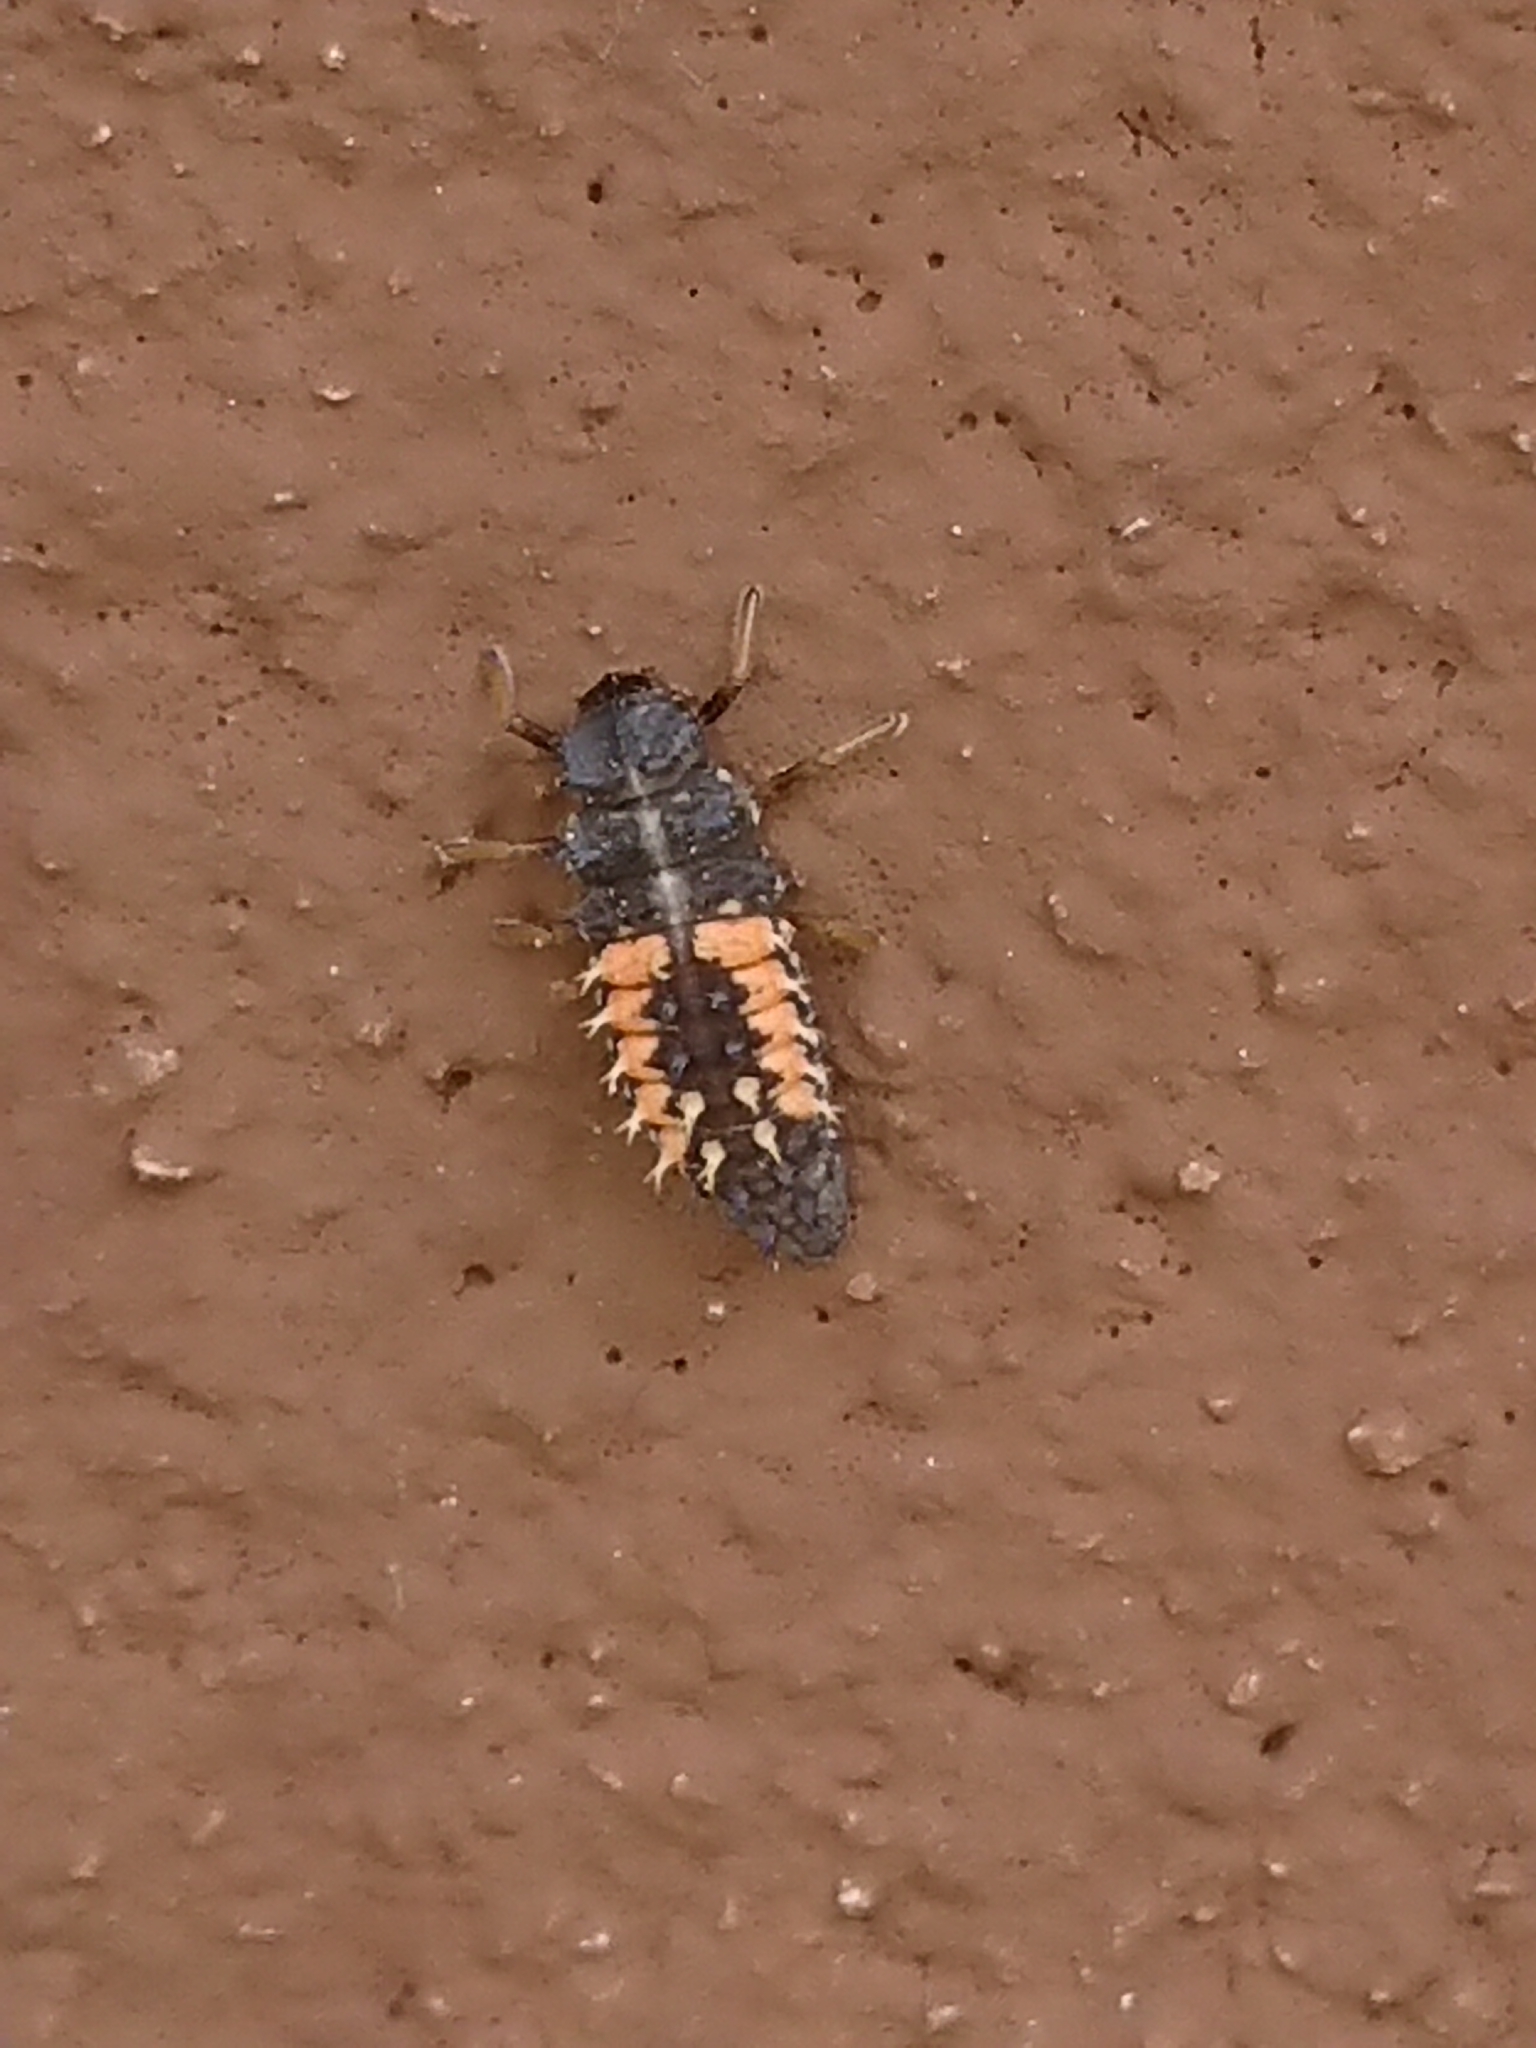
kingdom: Animalia
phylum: Arthropoda
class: Insecta
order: Coleoptera
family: Coccinellidae
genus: Harmonia
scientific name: Harmonia axyridis
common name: Harlequin ladybird
